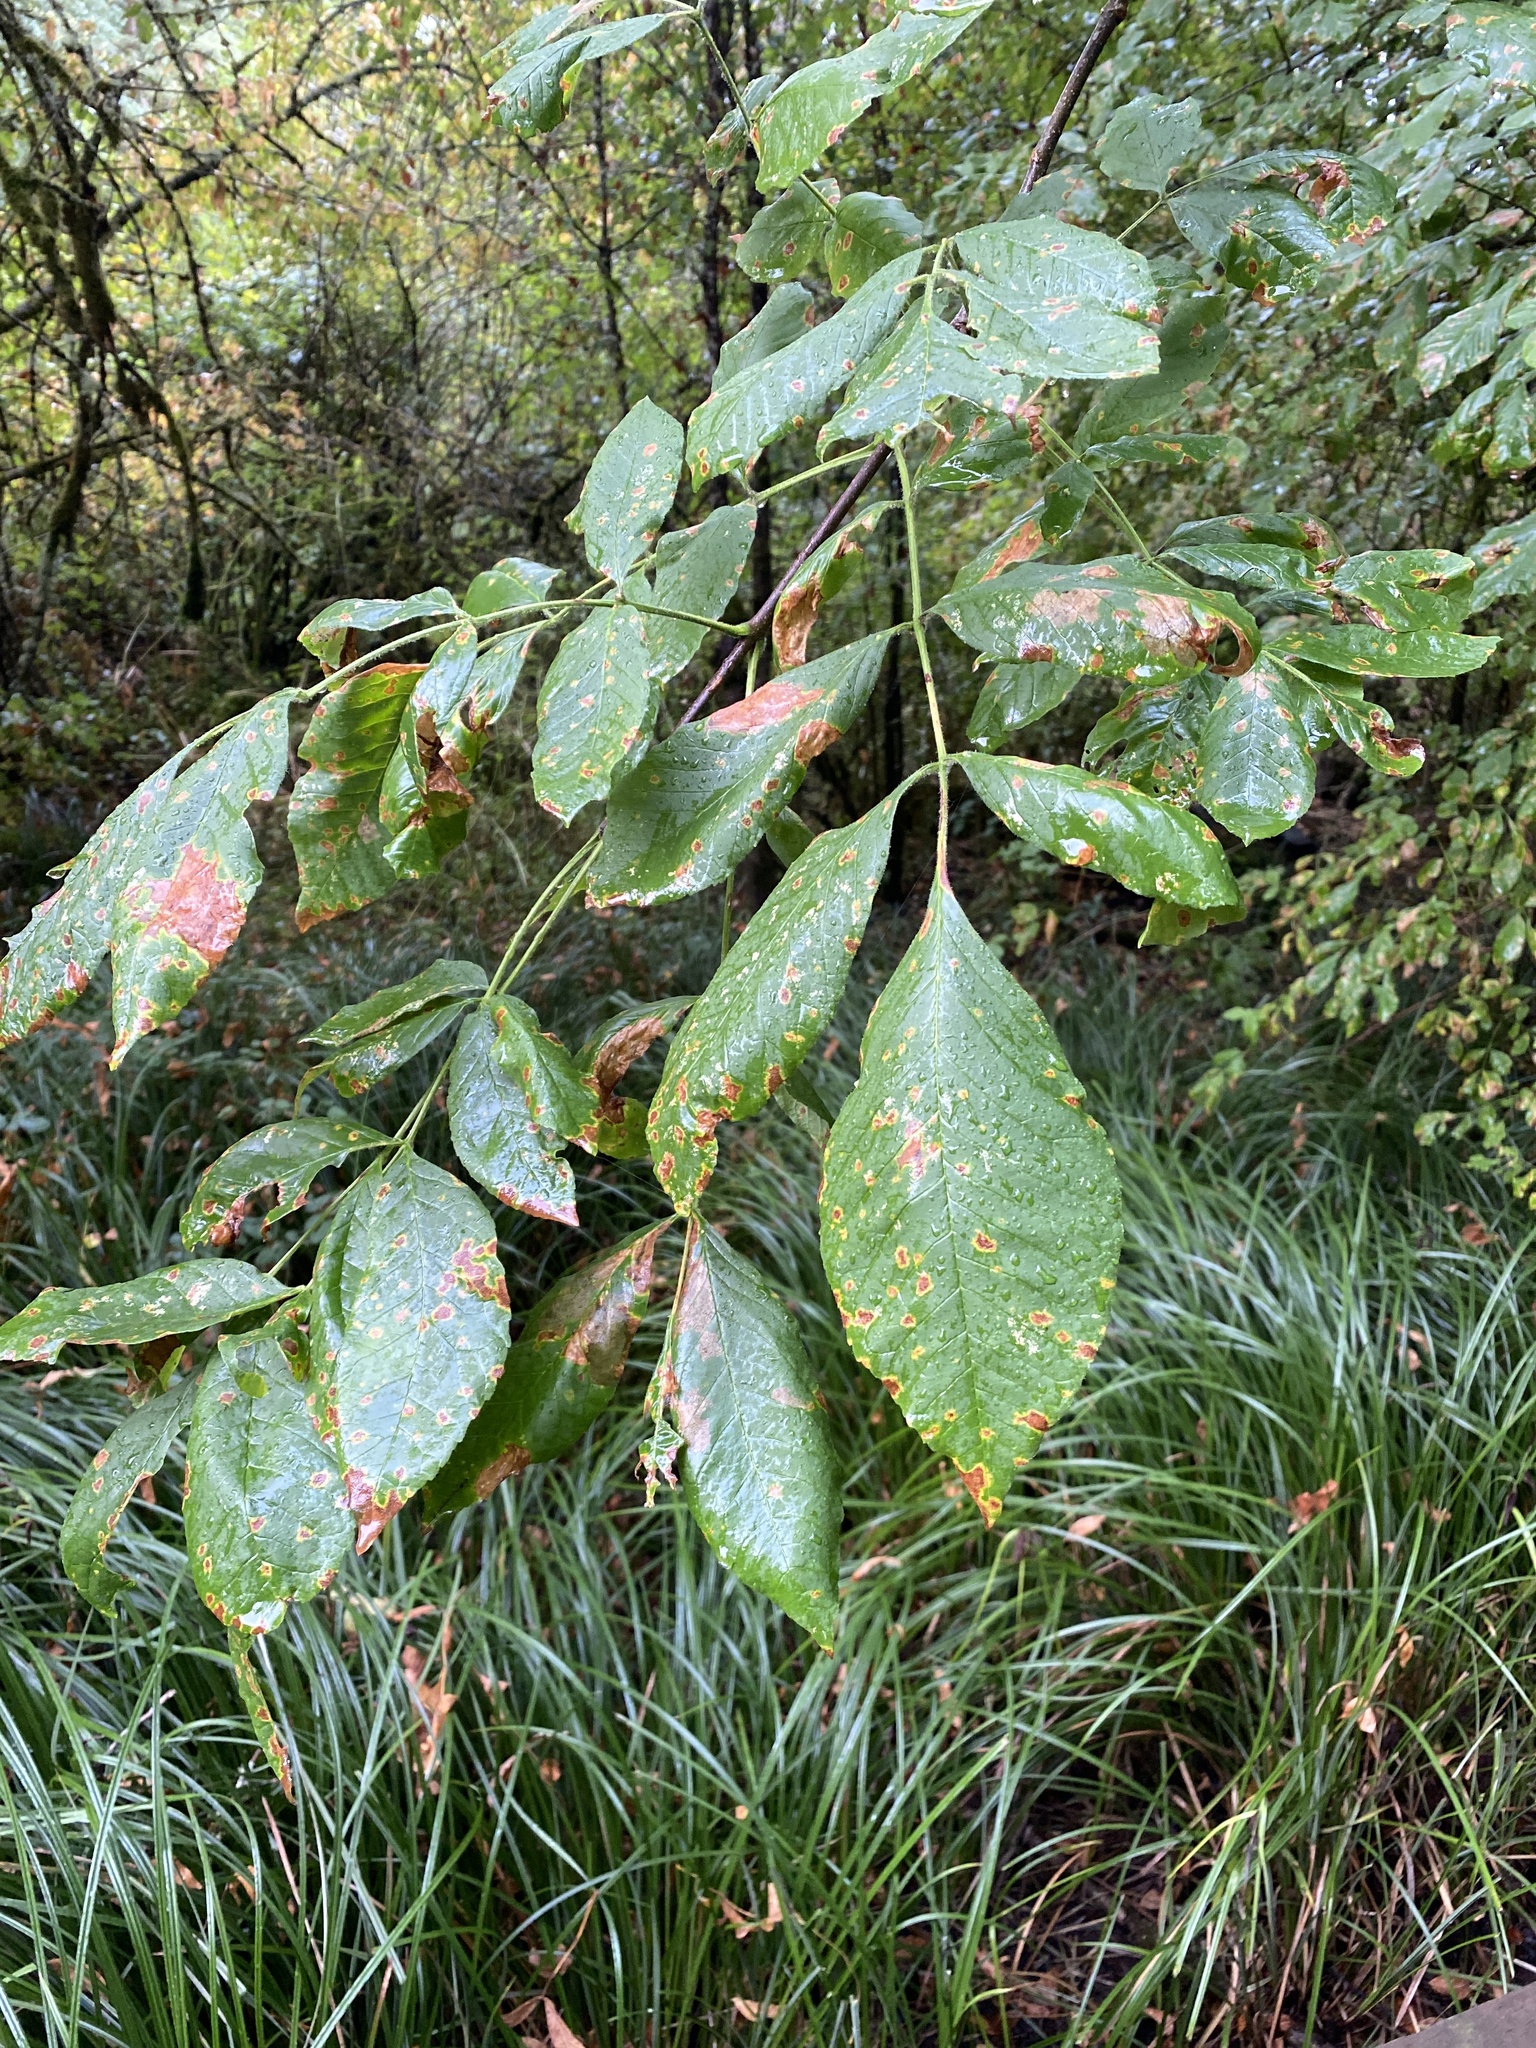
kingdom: Plantae
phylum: Tracheophyta
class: Magnoliopsida
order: Lamiales
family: Oleaceae
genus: Fraxinus
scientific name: Fraxinus latifolia
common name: Oregon ash
